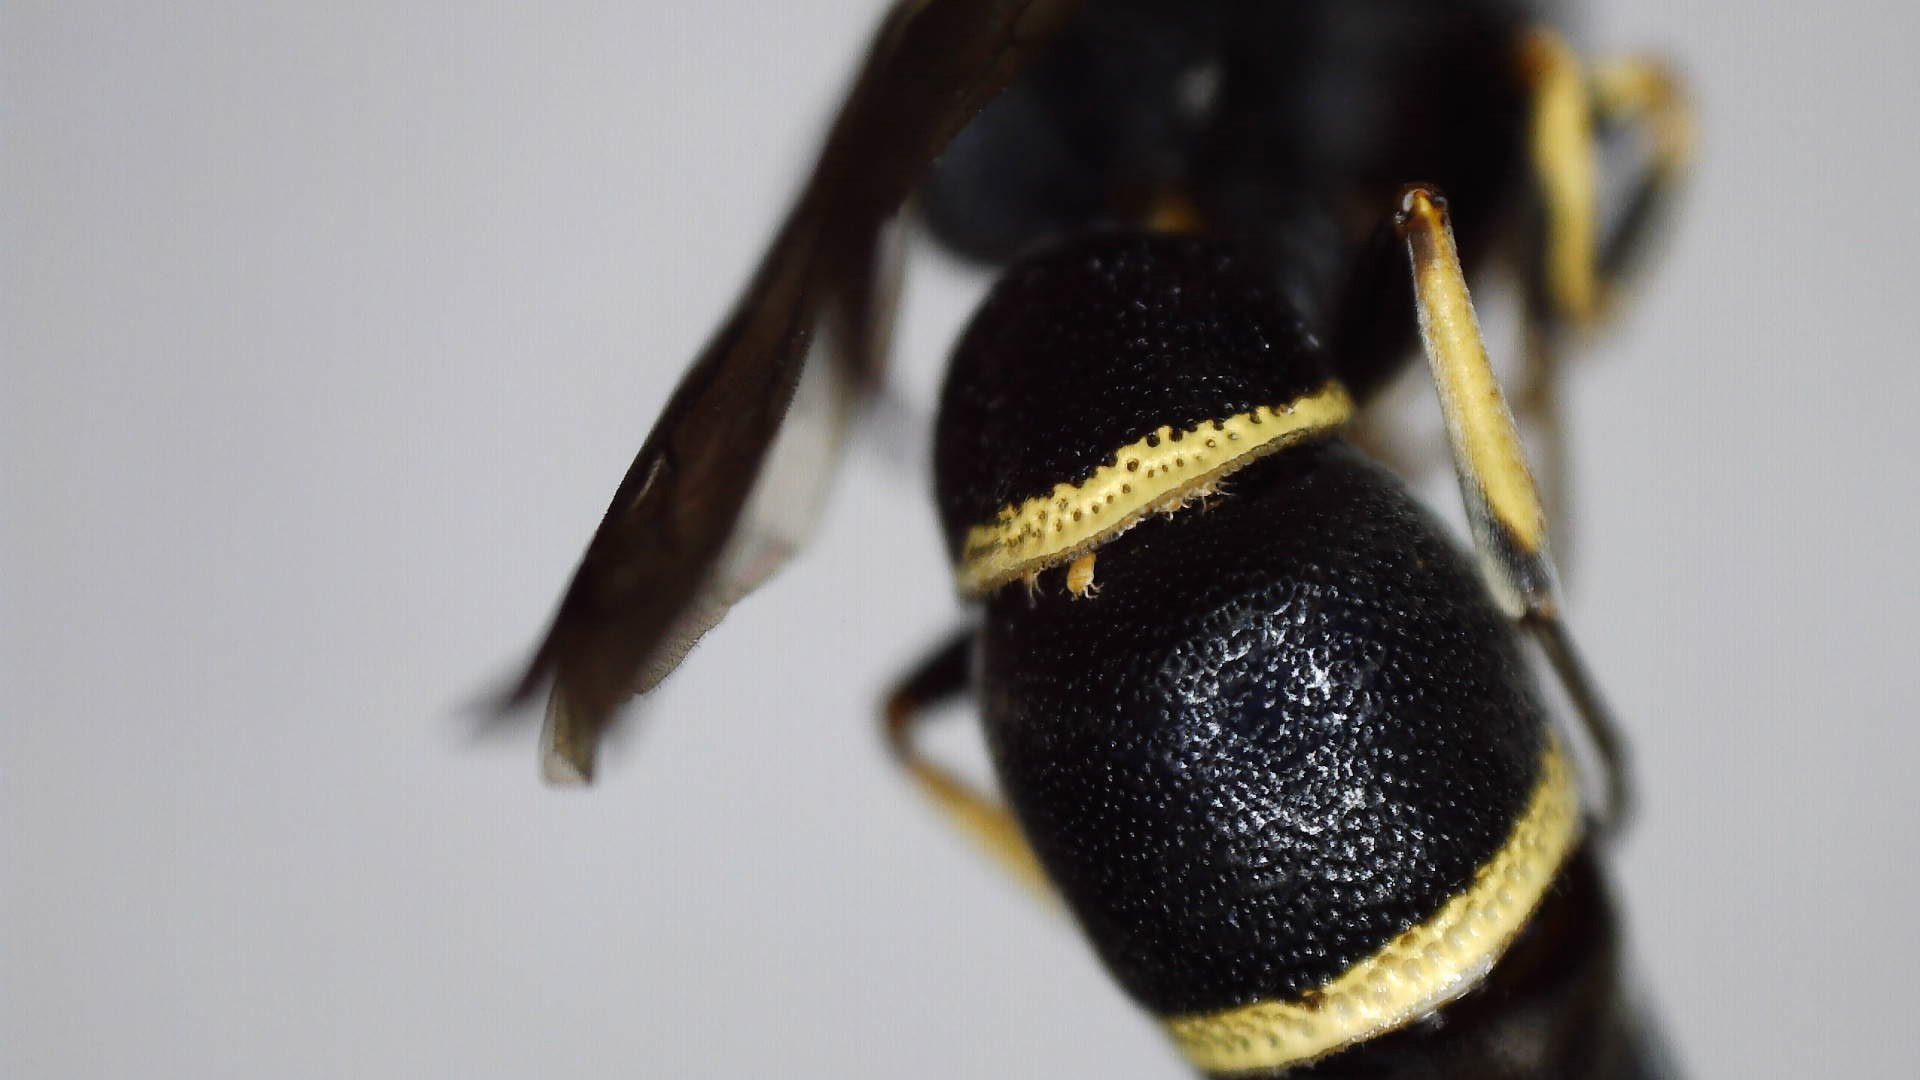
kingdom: Animalia
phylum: Arthropoda
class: Insecta
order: Hymenoptera
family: Eumenidae
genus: Parancistrocerus
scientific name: Parancistrocerus pensylvanicus
